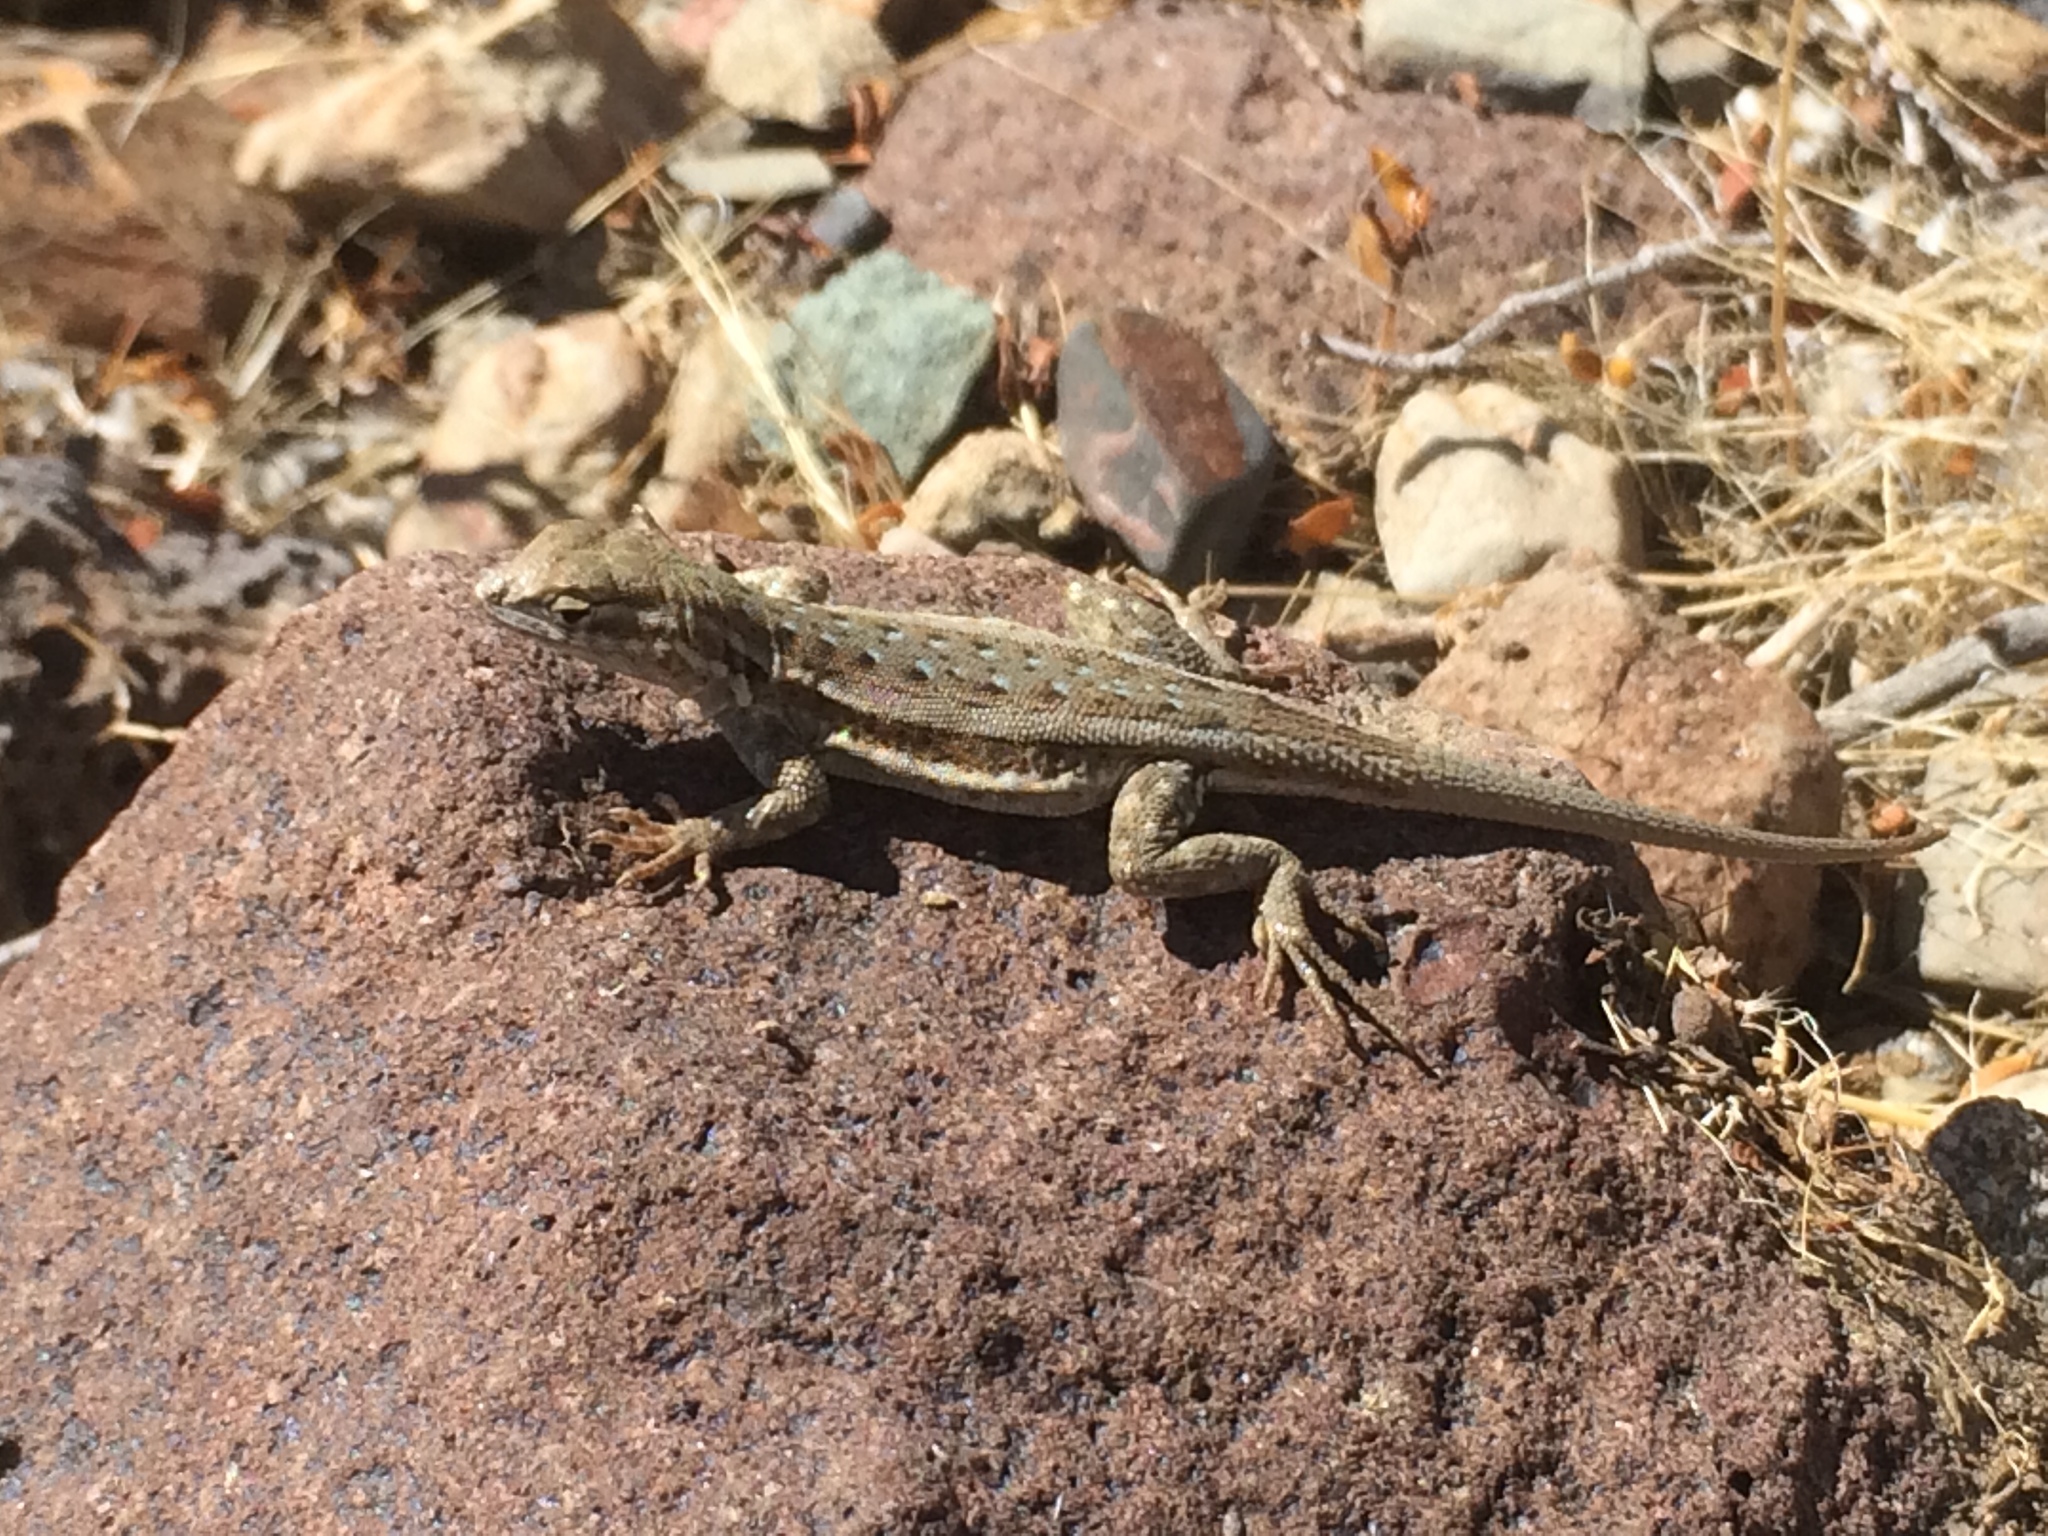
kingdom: Animalia
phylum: Chordata
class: Squamata
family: Phrynosomatidae
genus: Uta
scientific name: Uta stansburiana
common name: Side-blotched lizard
